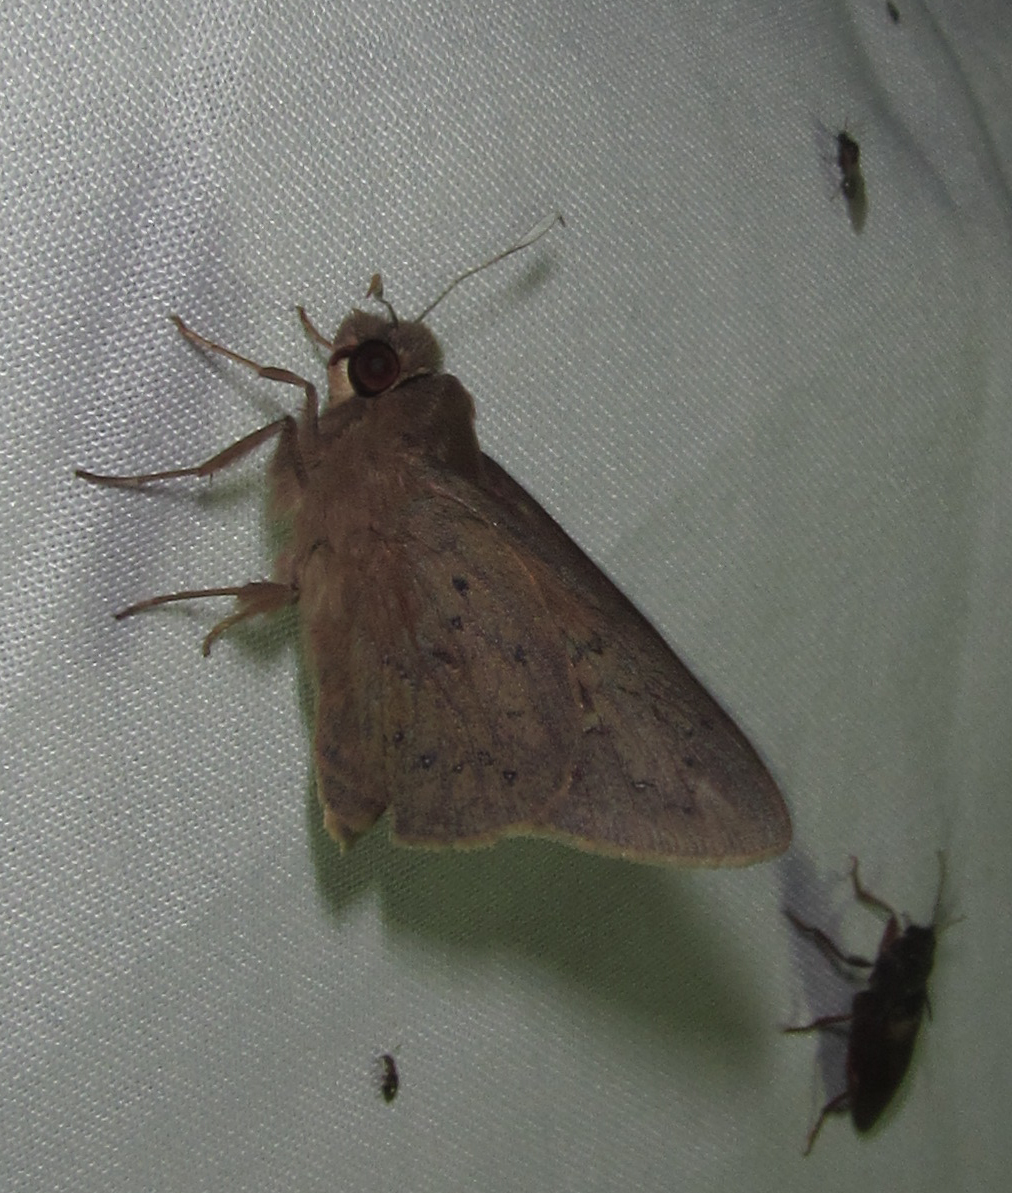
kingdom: Animalia
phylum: Arthropoda
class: Insecta
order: Lepidoptera
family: Hesperiidae
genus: Zophopetes
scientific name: Zophopetes dysmephila
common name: Palm-tree nightfighter
